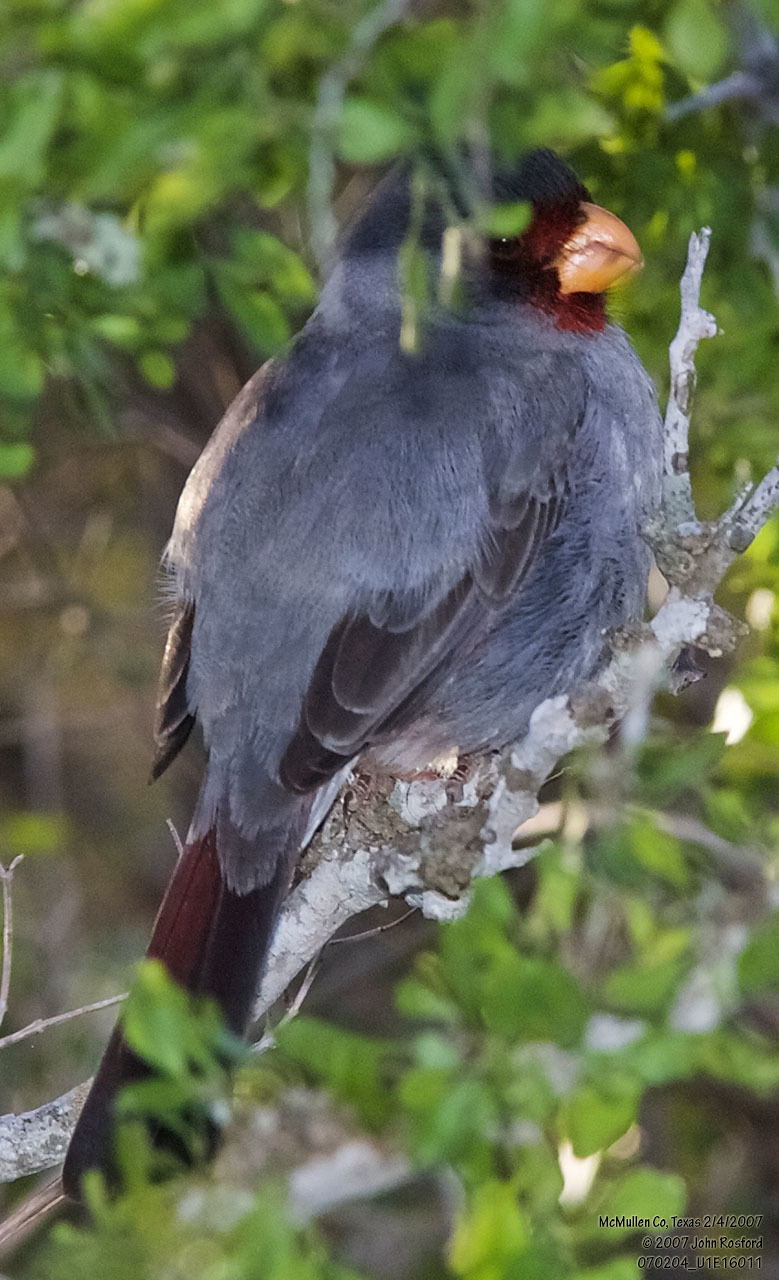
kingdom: Animalia
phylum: Chordata
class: Aves
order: Passeriformes
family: Cardinalidae
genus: Cardinalis
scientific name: Cardinalis sinuatus
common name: Pyrrhuloxia
